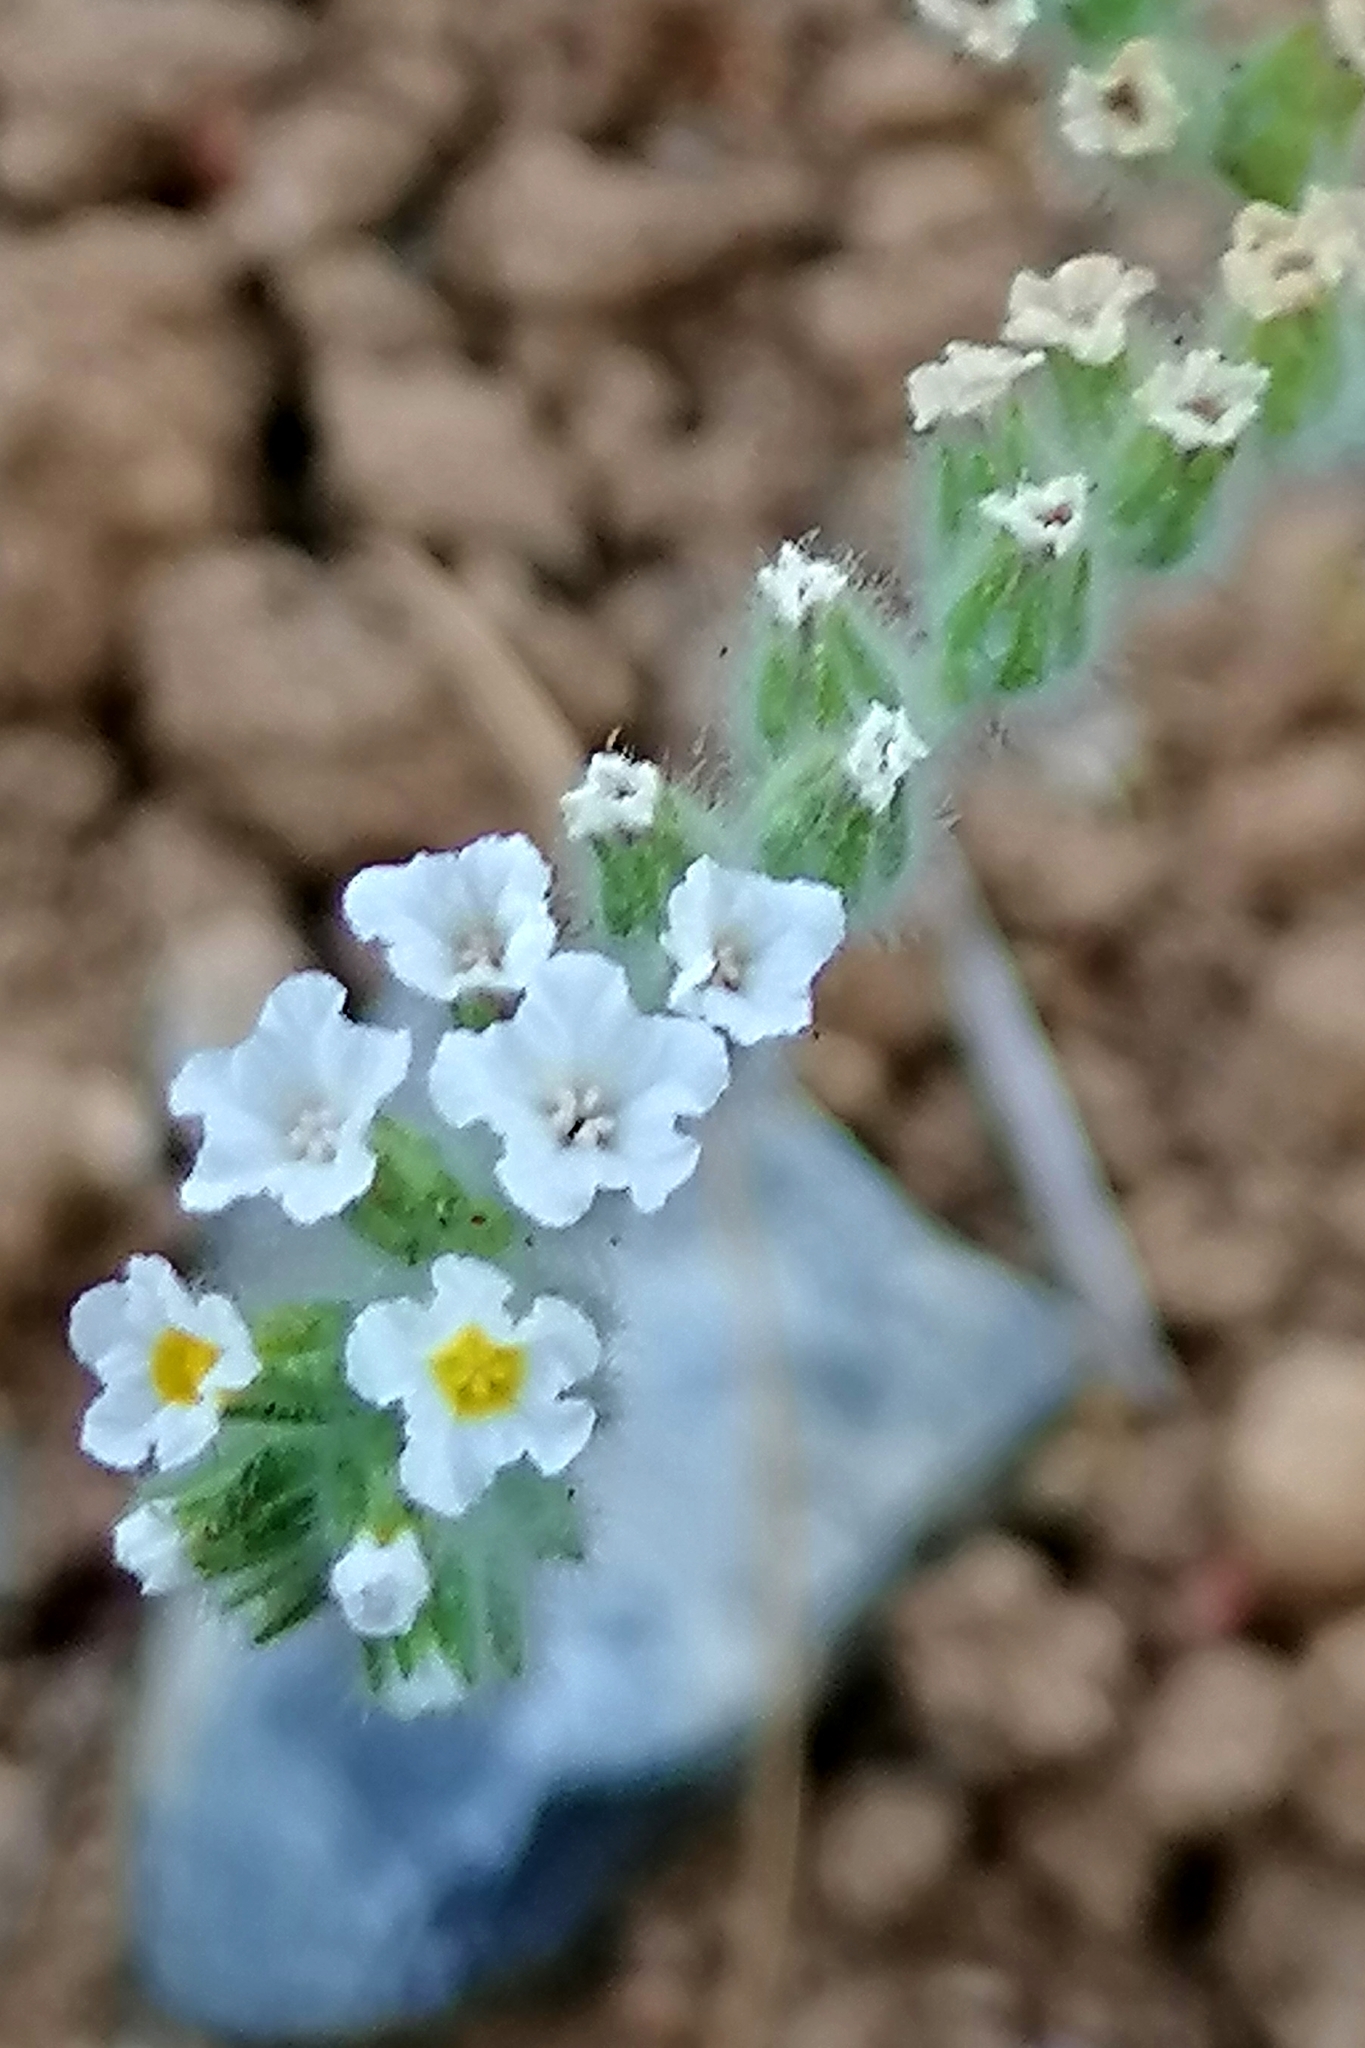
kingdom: Plantae
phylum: Tracheophyta
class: Magnoliopsida
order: Boraginales
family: Heliotropiaceae
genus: Heliotropium
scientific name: Heliotropium europaeum
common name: European heliotrope
